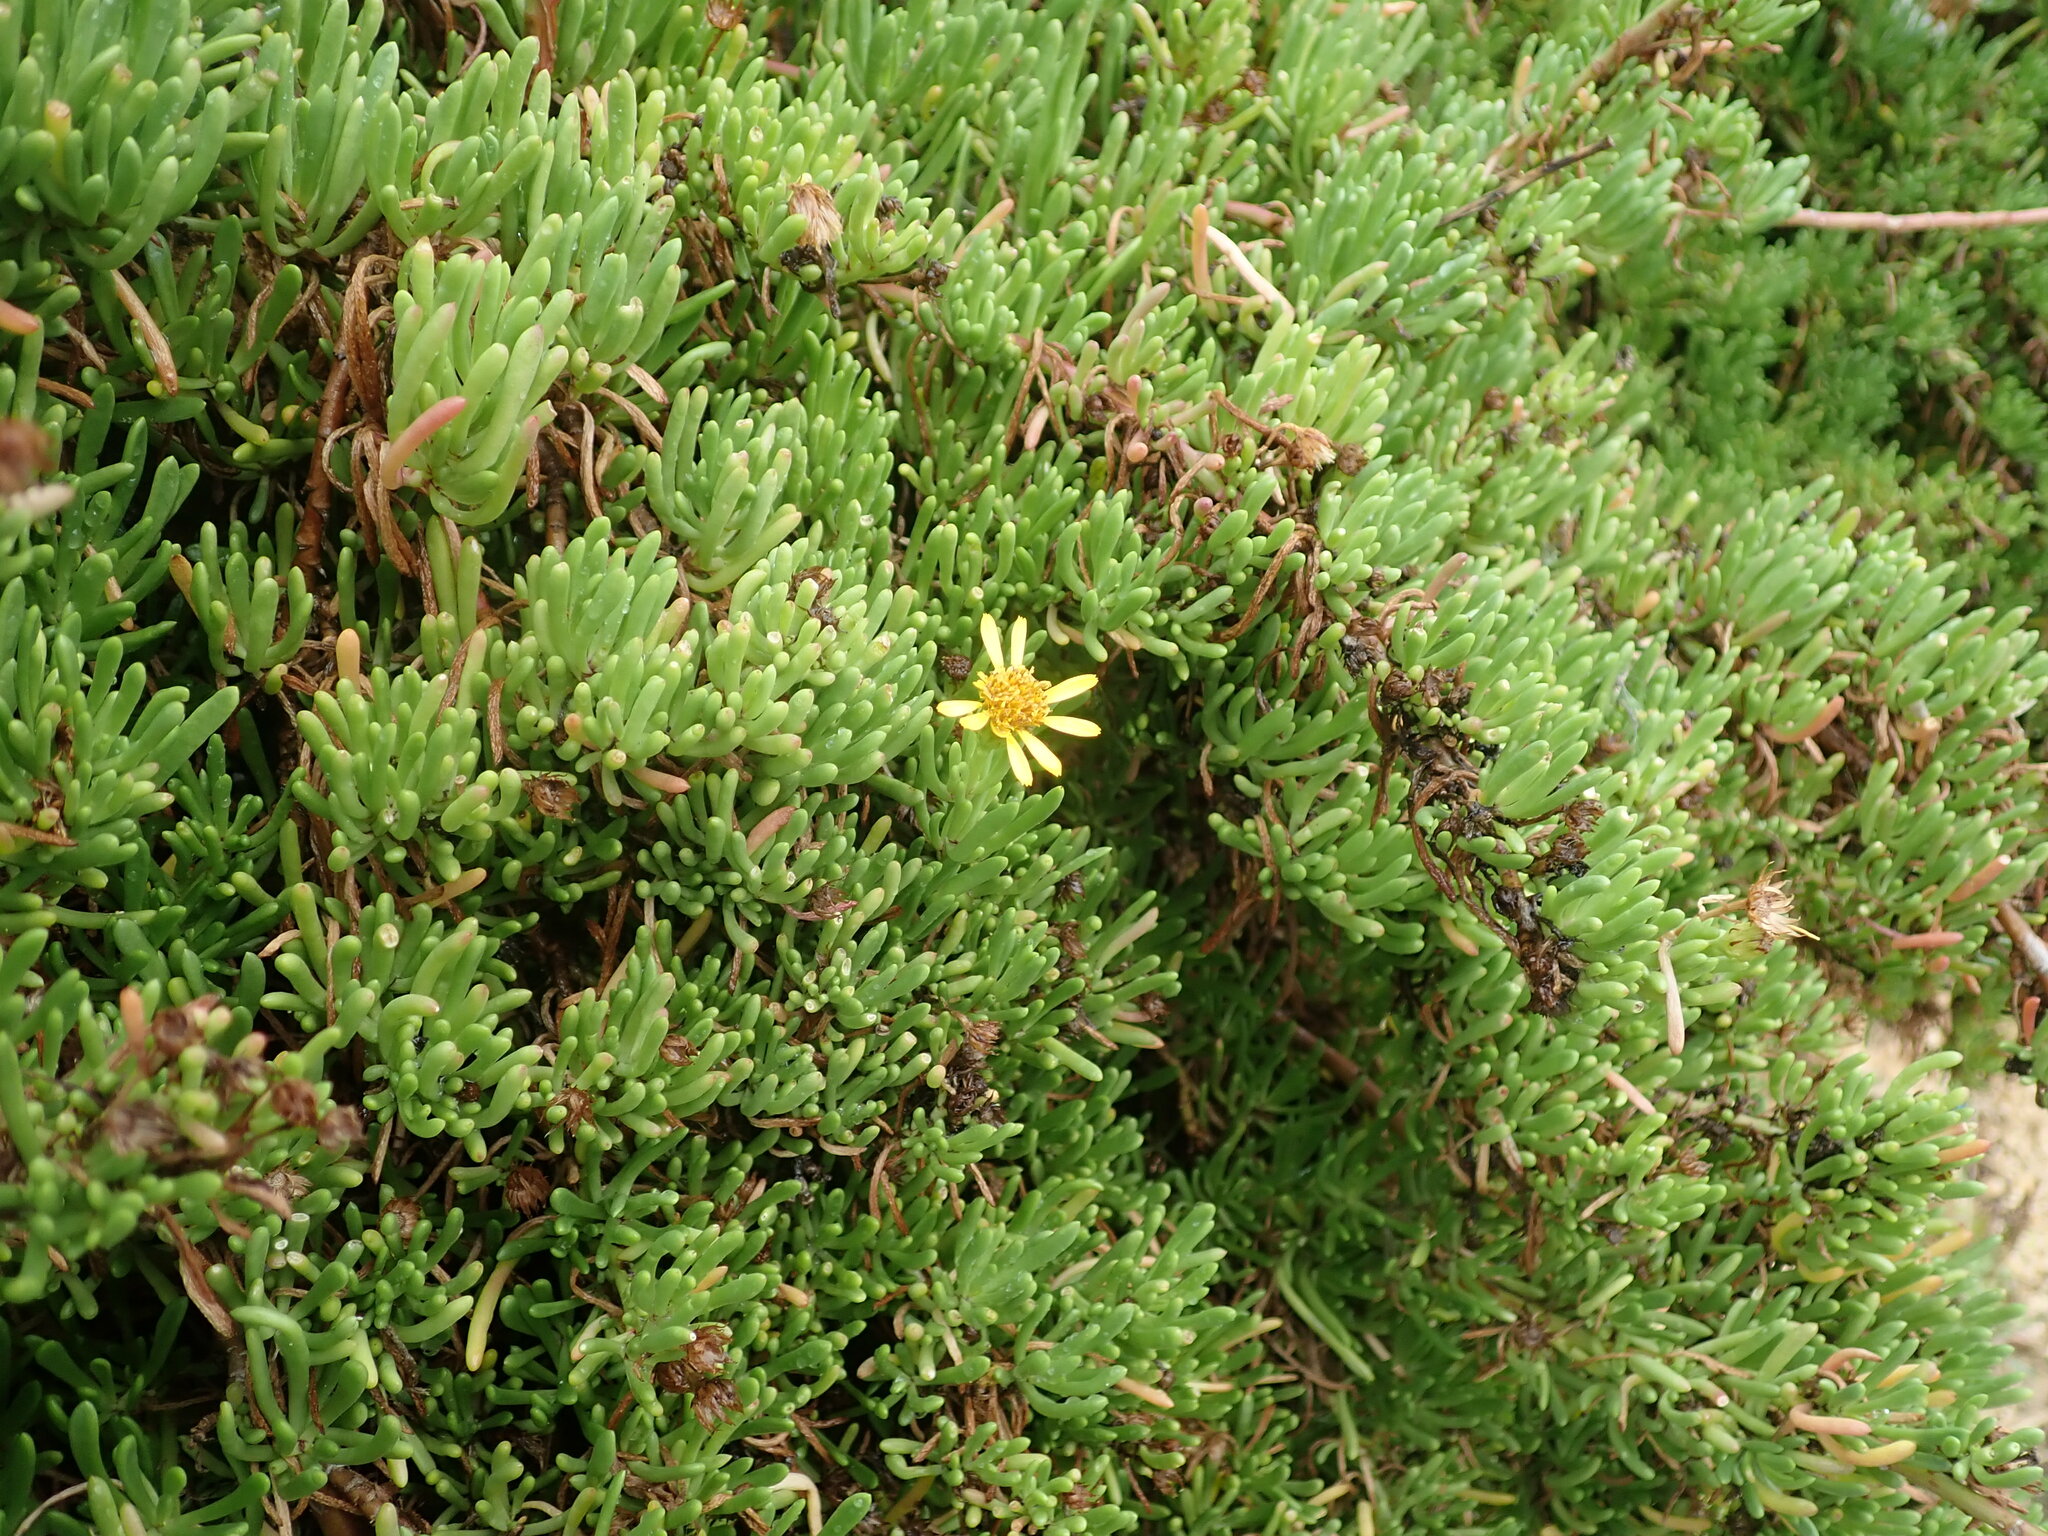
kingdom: Plantae
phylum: Tracheophyta
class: Magnoliopsida
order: Asterales
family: Asteraceae
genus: Limbarda
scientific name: Limbarda crithmoides
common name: Golden samphire
